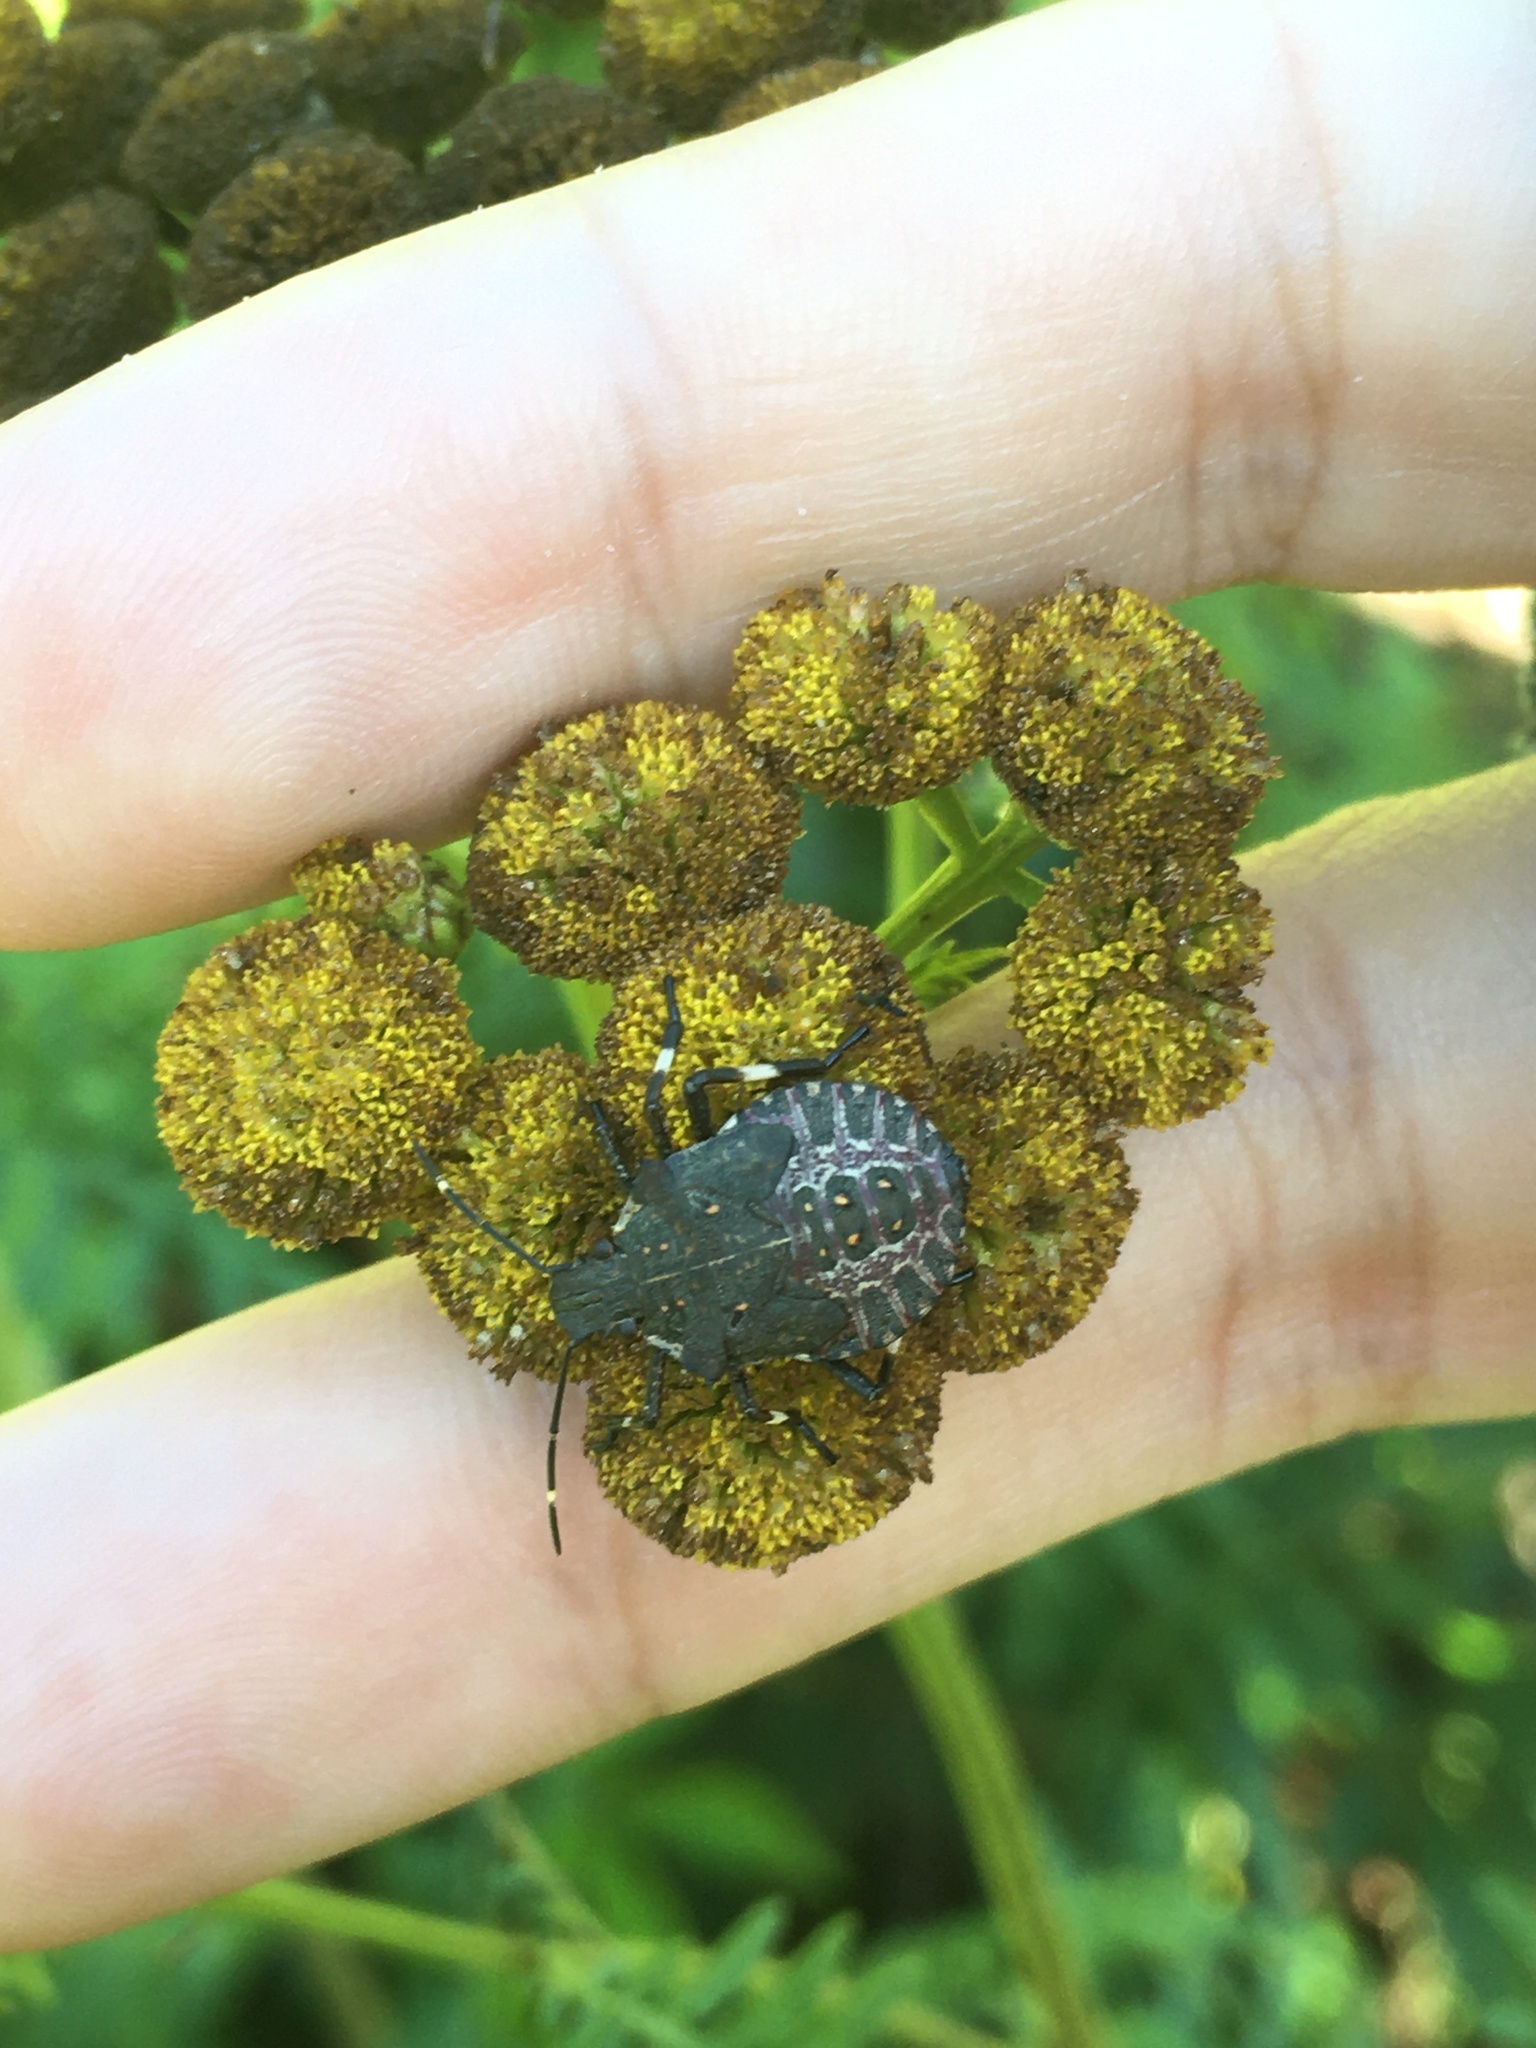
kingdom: Animalia
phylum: Arthropoda
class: Insecta
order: Hemiptera
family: Pentatomidae
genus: Halyomorpha
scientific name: Halyomorpha halys
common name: Brown marmorated stink bug
